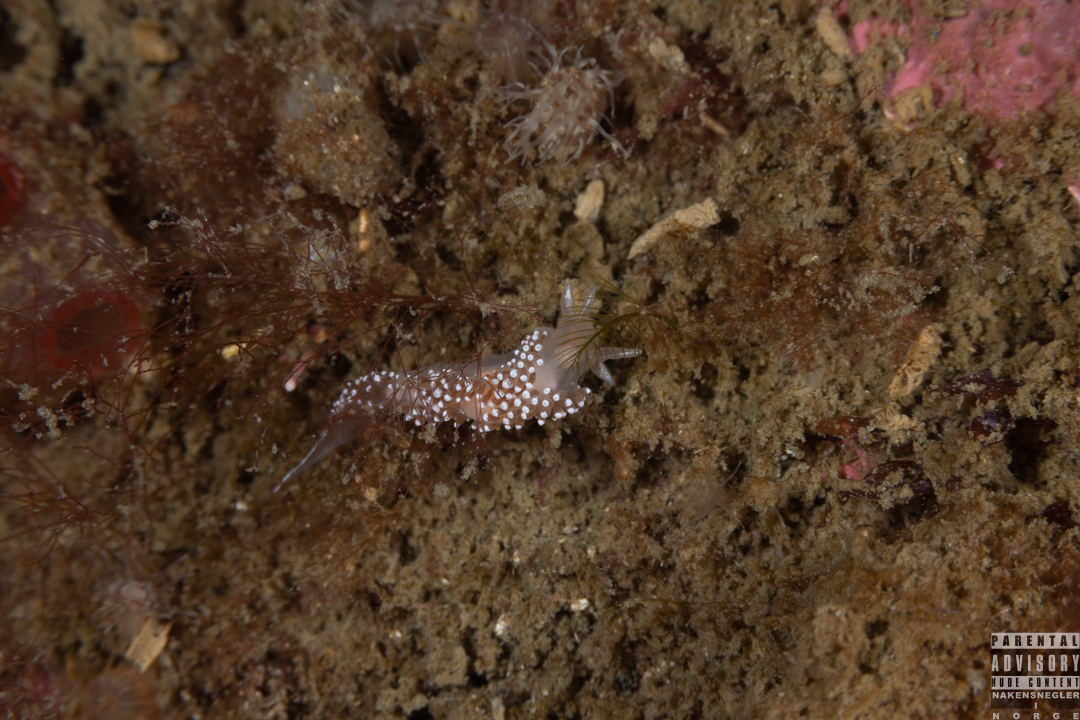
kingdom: Animalia
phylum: Mollusca
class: Gastropoda
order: Nudibranchia
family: Coryphellidae
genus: Coryphella
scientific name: Coryphella verrucosa
